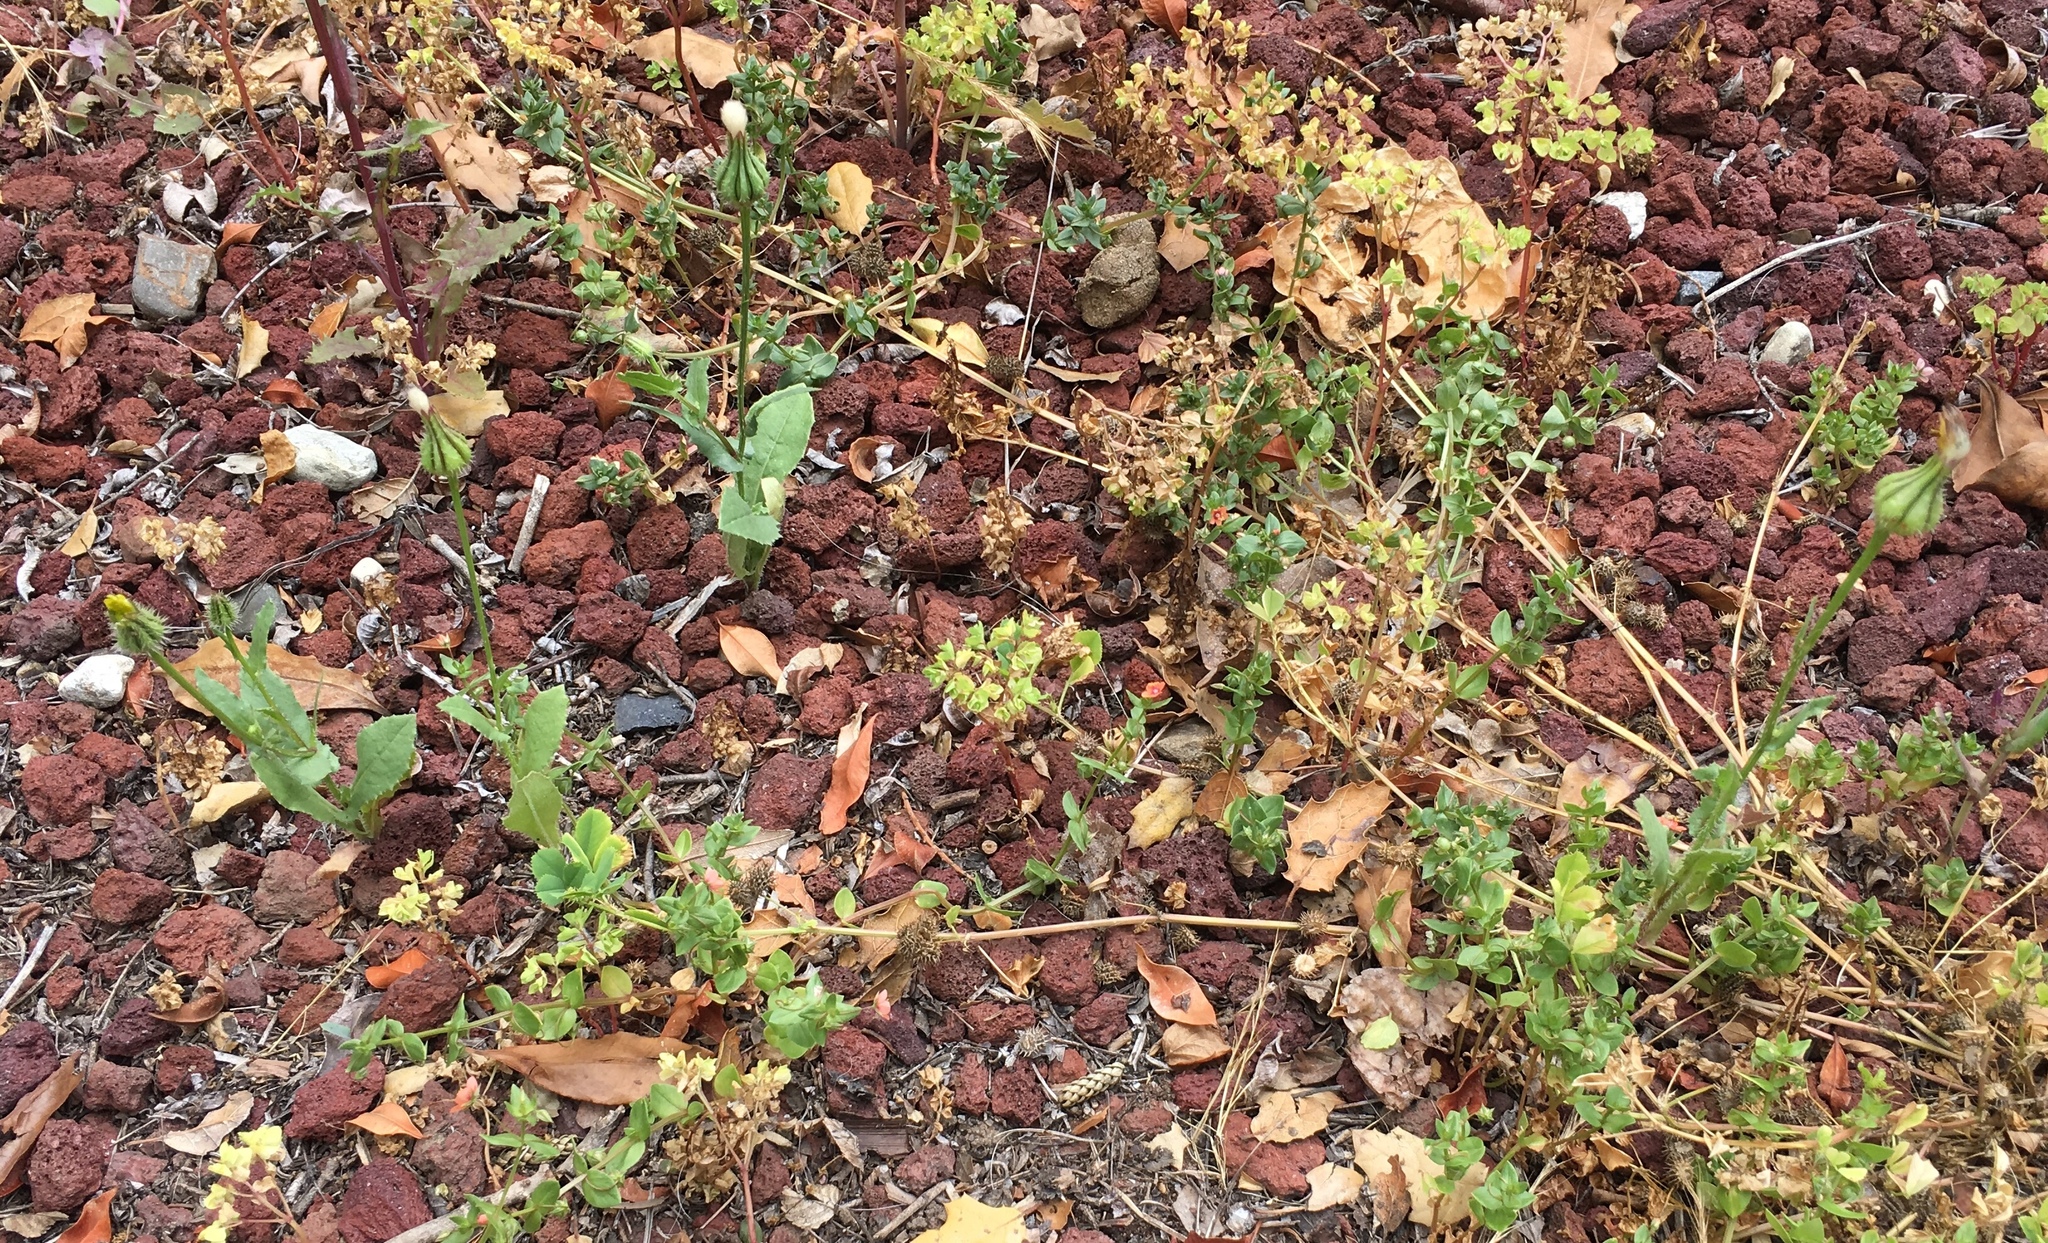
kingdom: Plantae
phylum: Tracheophyta
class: Magnoliopsida
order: Asterales
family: Asteraceae
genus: Urospermum
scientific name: Urospermum picroides
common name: False hawkbit
